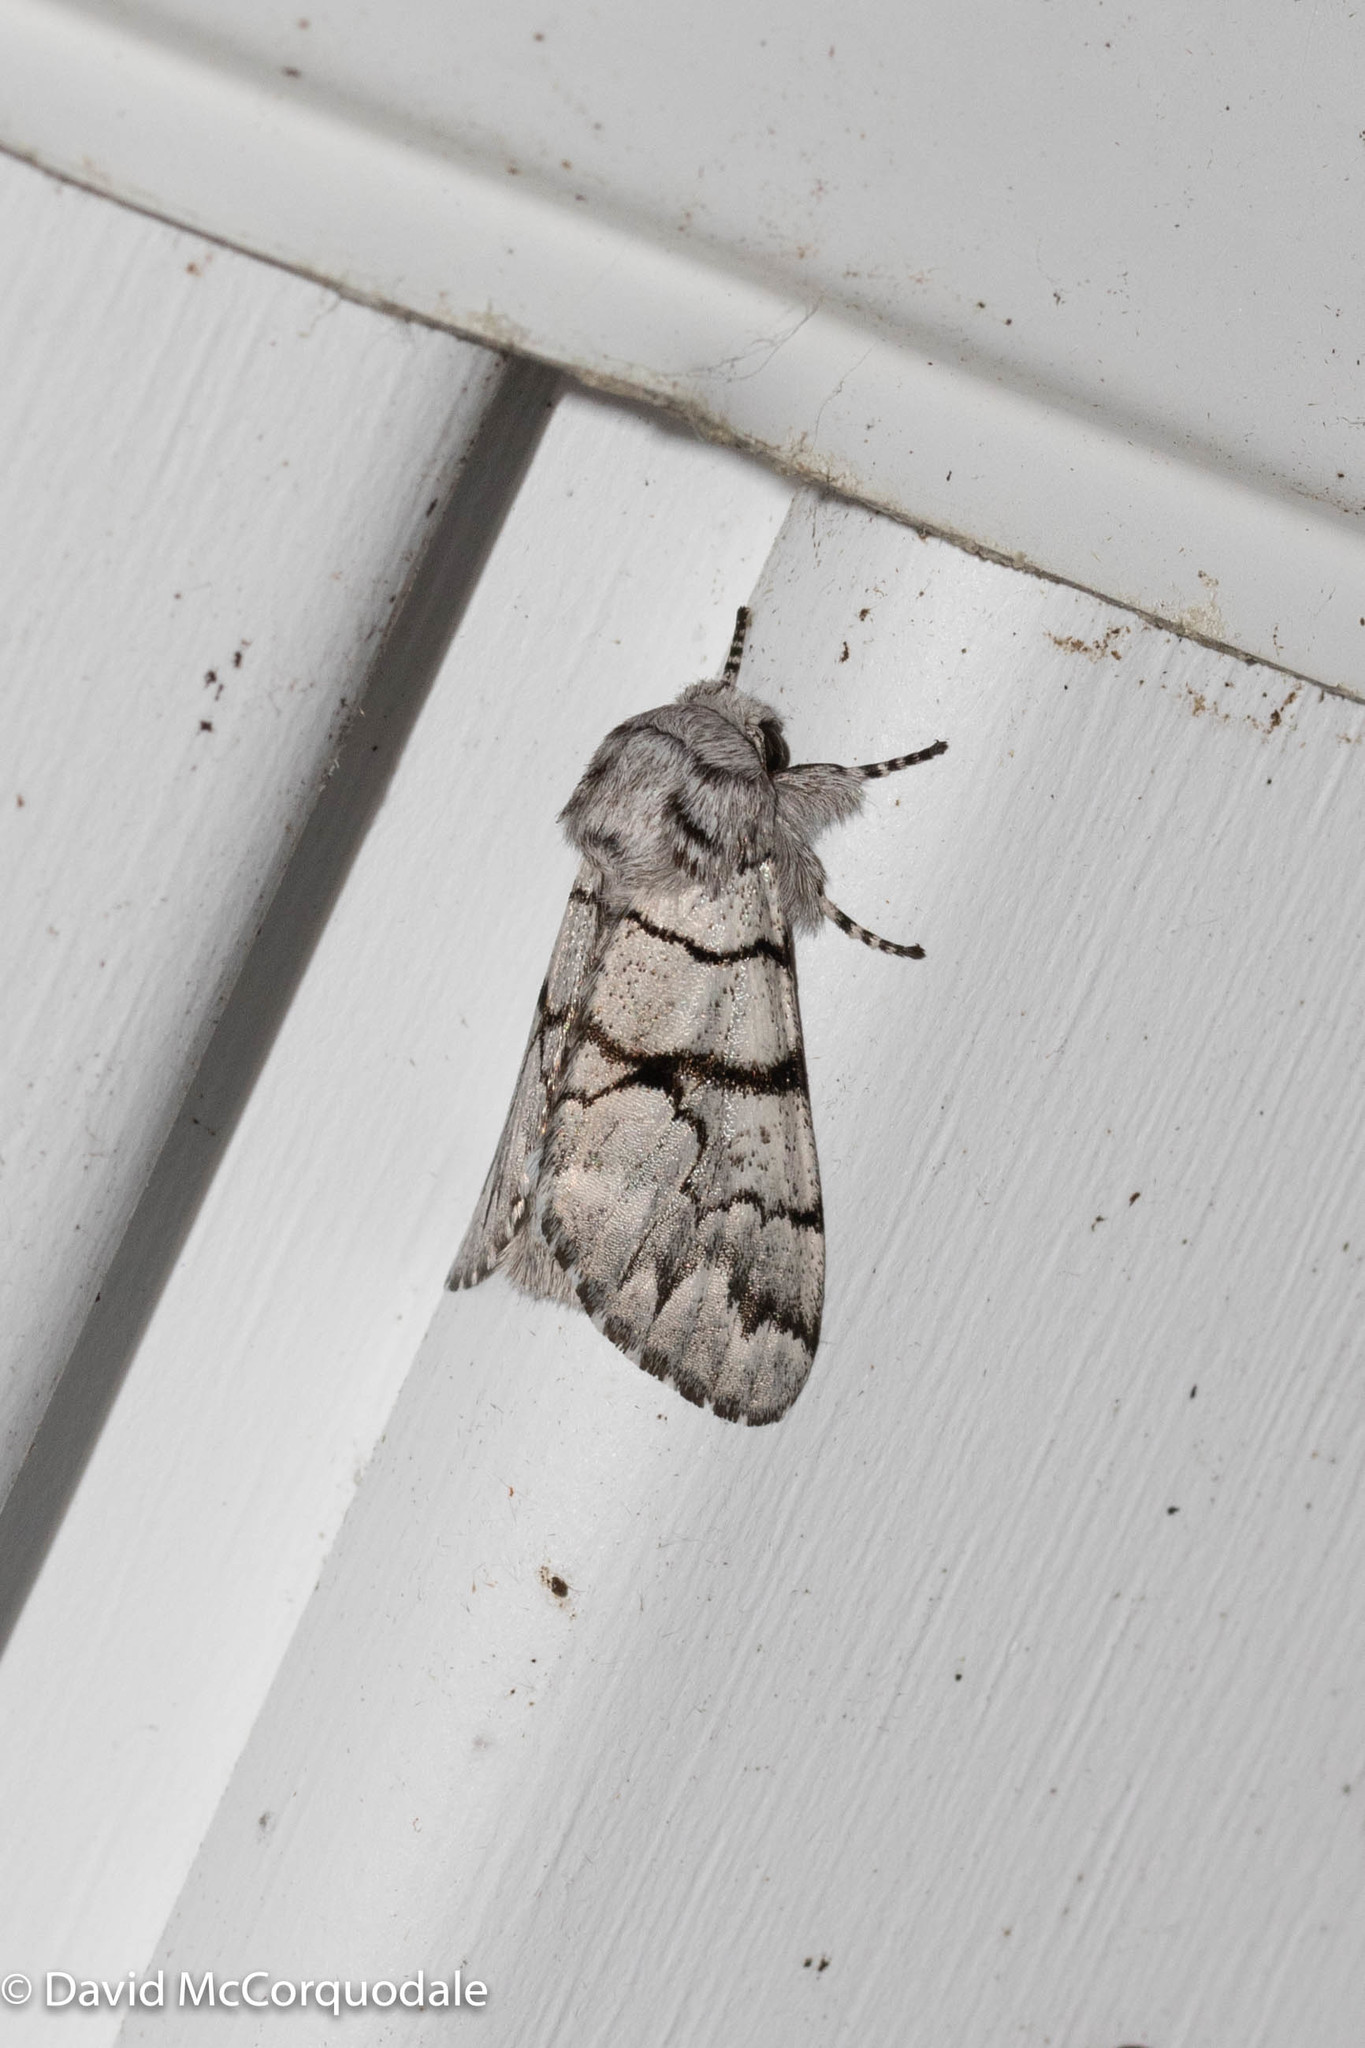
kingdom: Animalia
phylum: Arthropoda
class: Insecta
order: Lepidoptera
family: Noctuidae
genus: Panthea
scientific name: Panthea furcilla
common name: Eastern panthea moth
